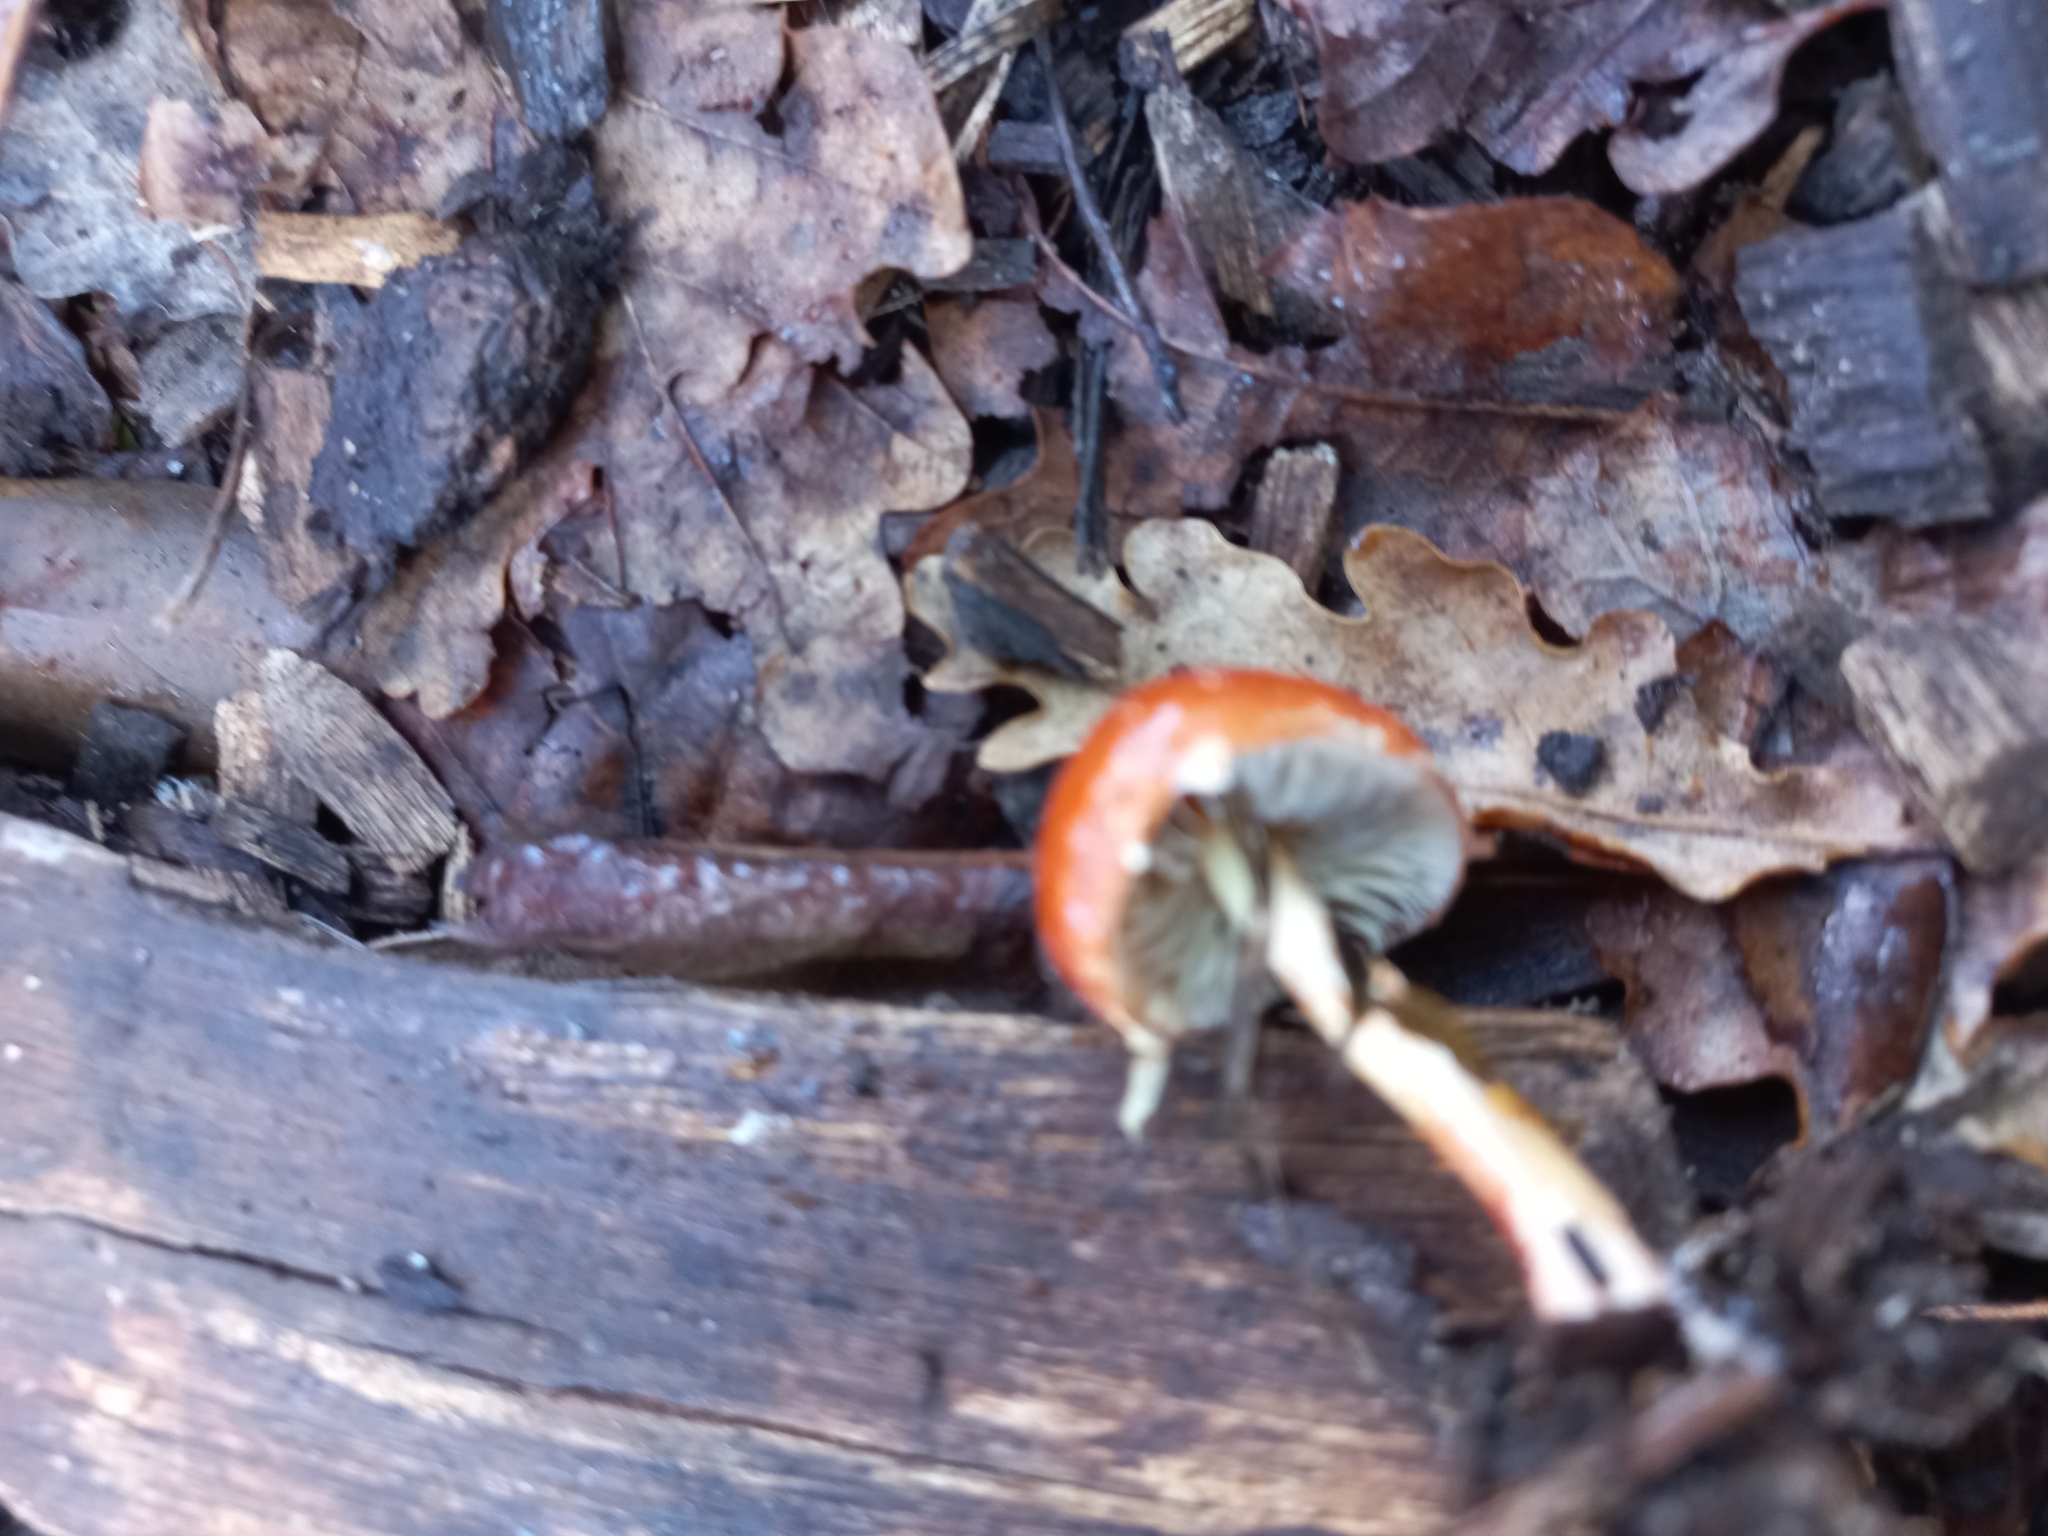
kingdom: Fungi
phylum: Basidiomycota
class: Agaricomycetes
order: Agaricales
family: Strophariaceae
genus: Leratiomyces
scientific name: Leratiomyces ceres
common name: Redlead roundhead
